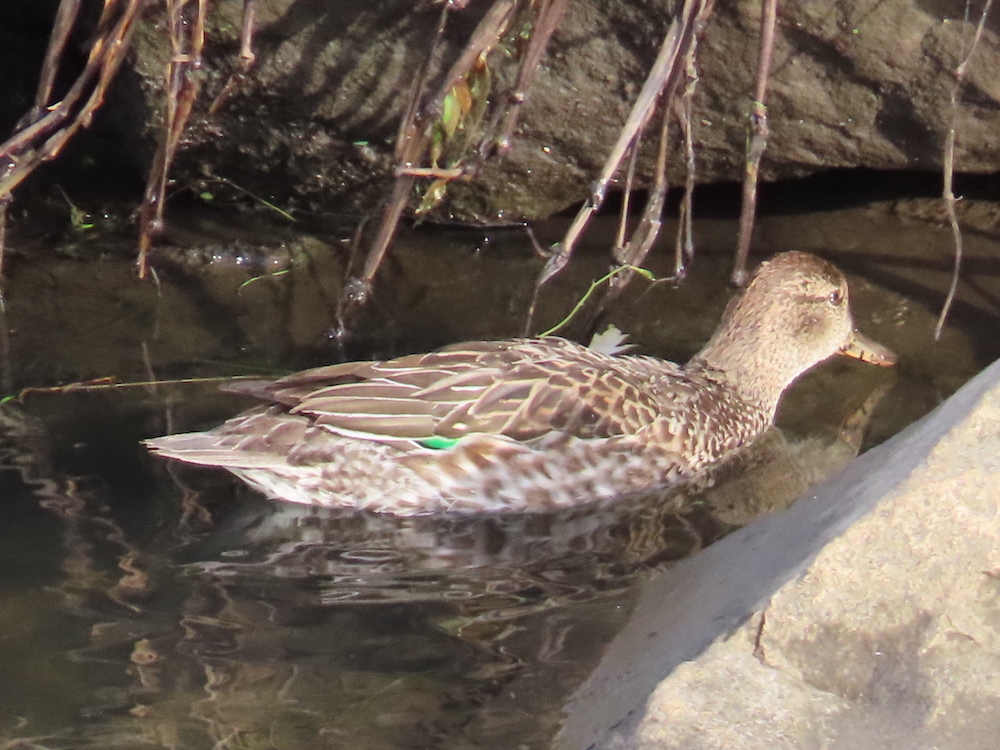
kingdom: Animalia
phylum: Chordata
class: Aves
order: Anseriformes
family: Anatidae
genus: Anas
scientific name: Anas crecca
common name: Eurasian teal
